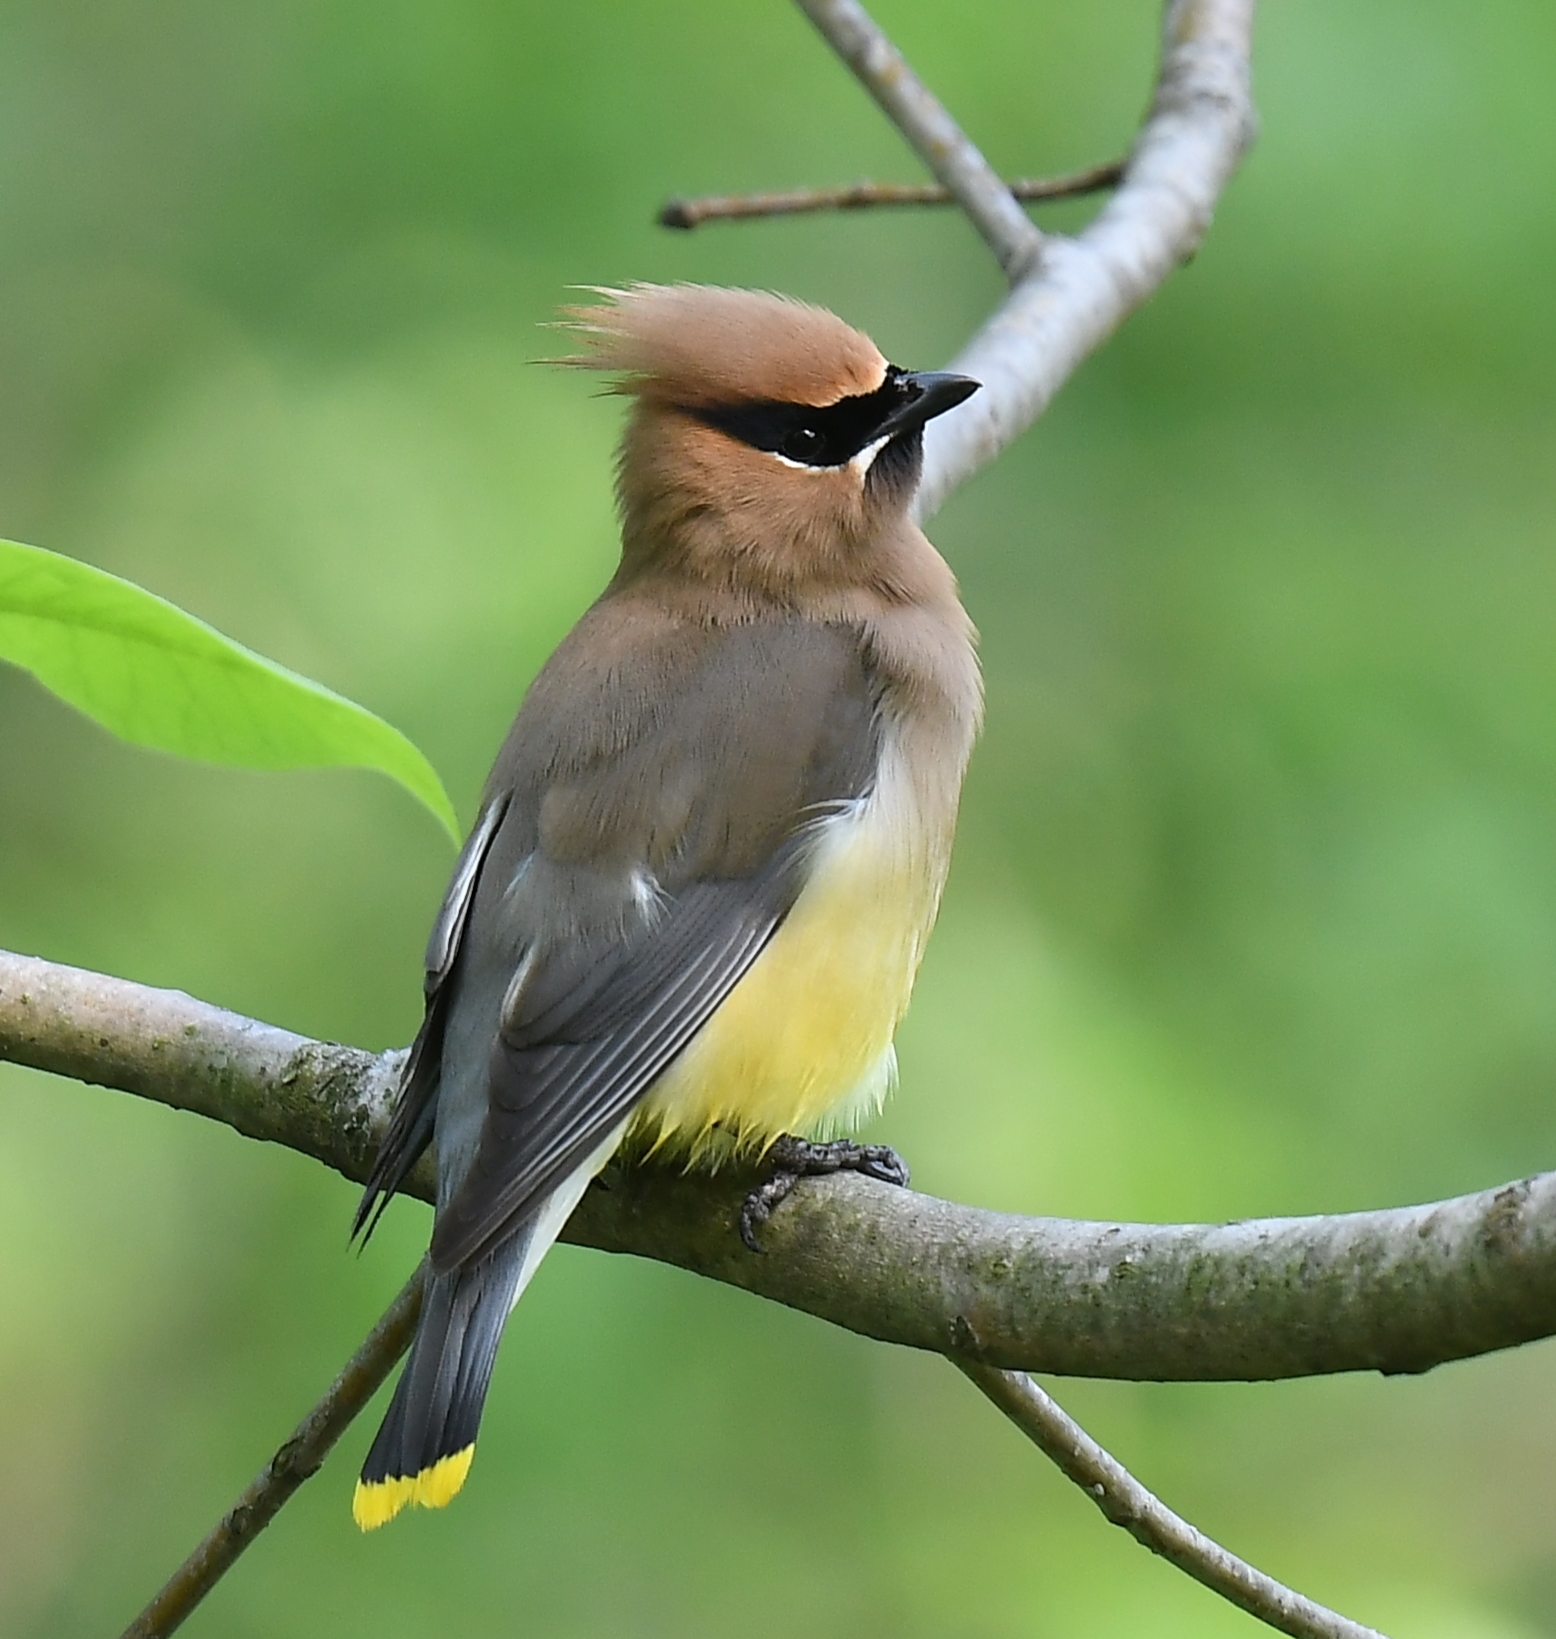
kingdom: Animalia
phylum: Chordata
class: Aves
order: Passeriformes
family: Bombycillidae
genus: Bombycilla
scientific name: Bombycilla cedrorum
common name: Cedar waxwing
